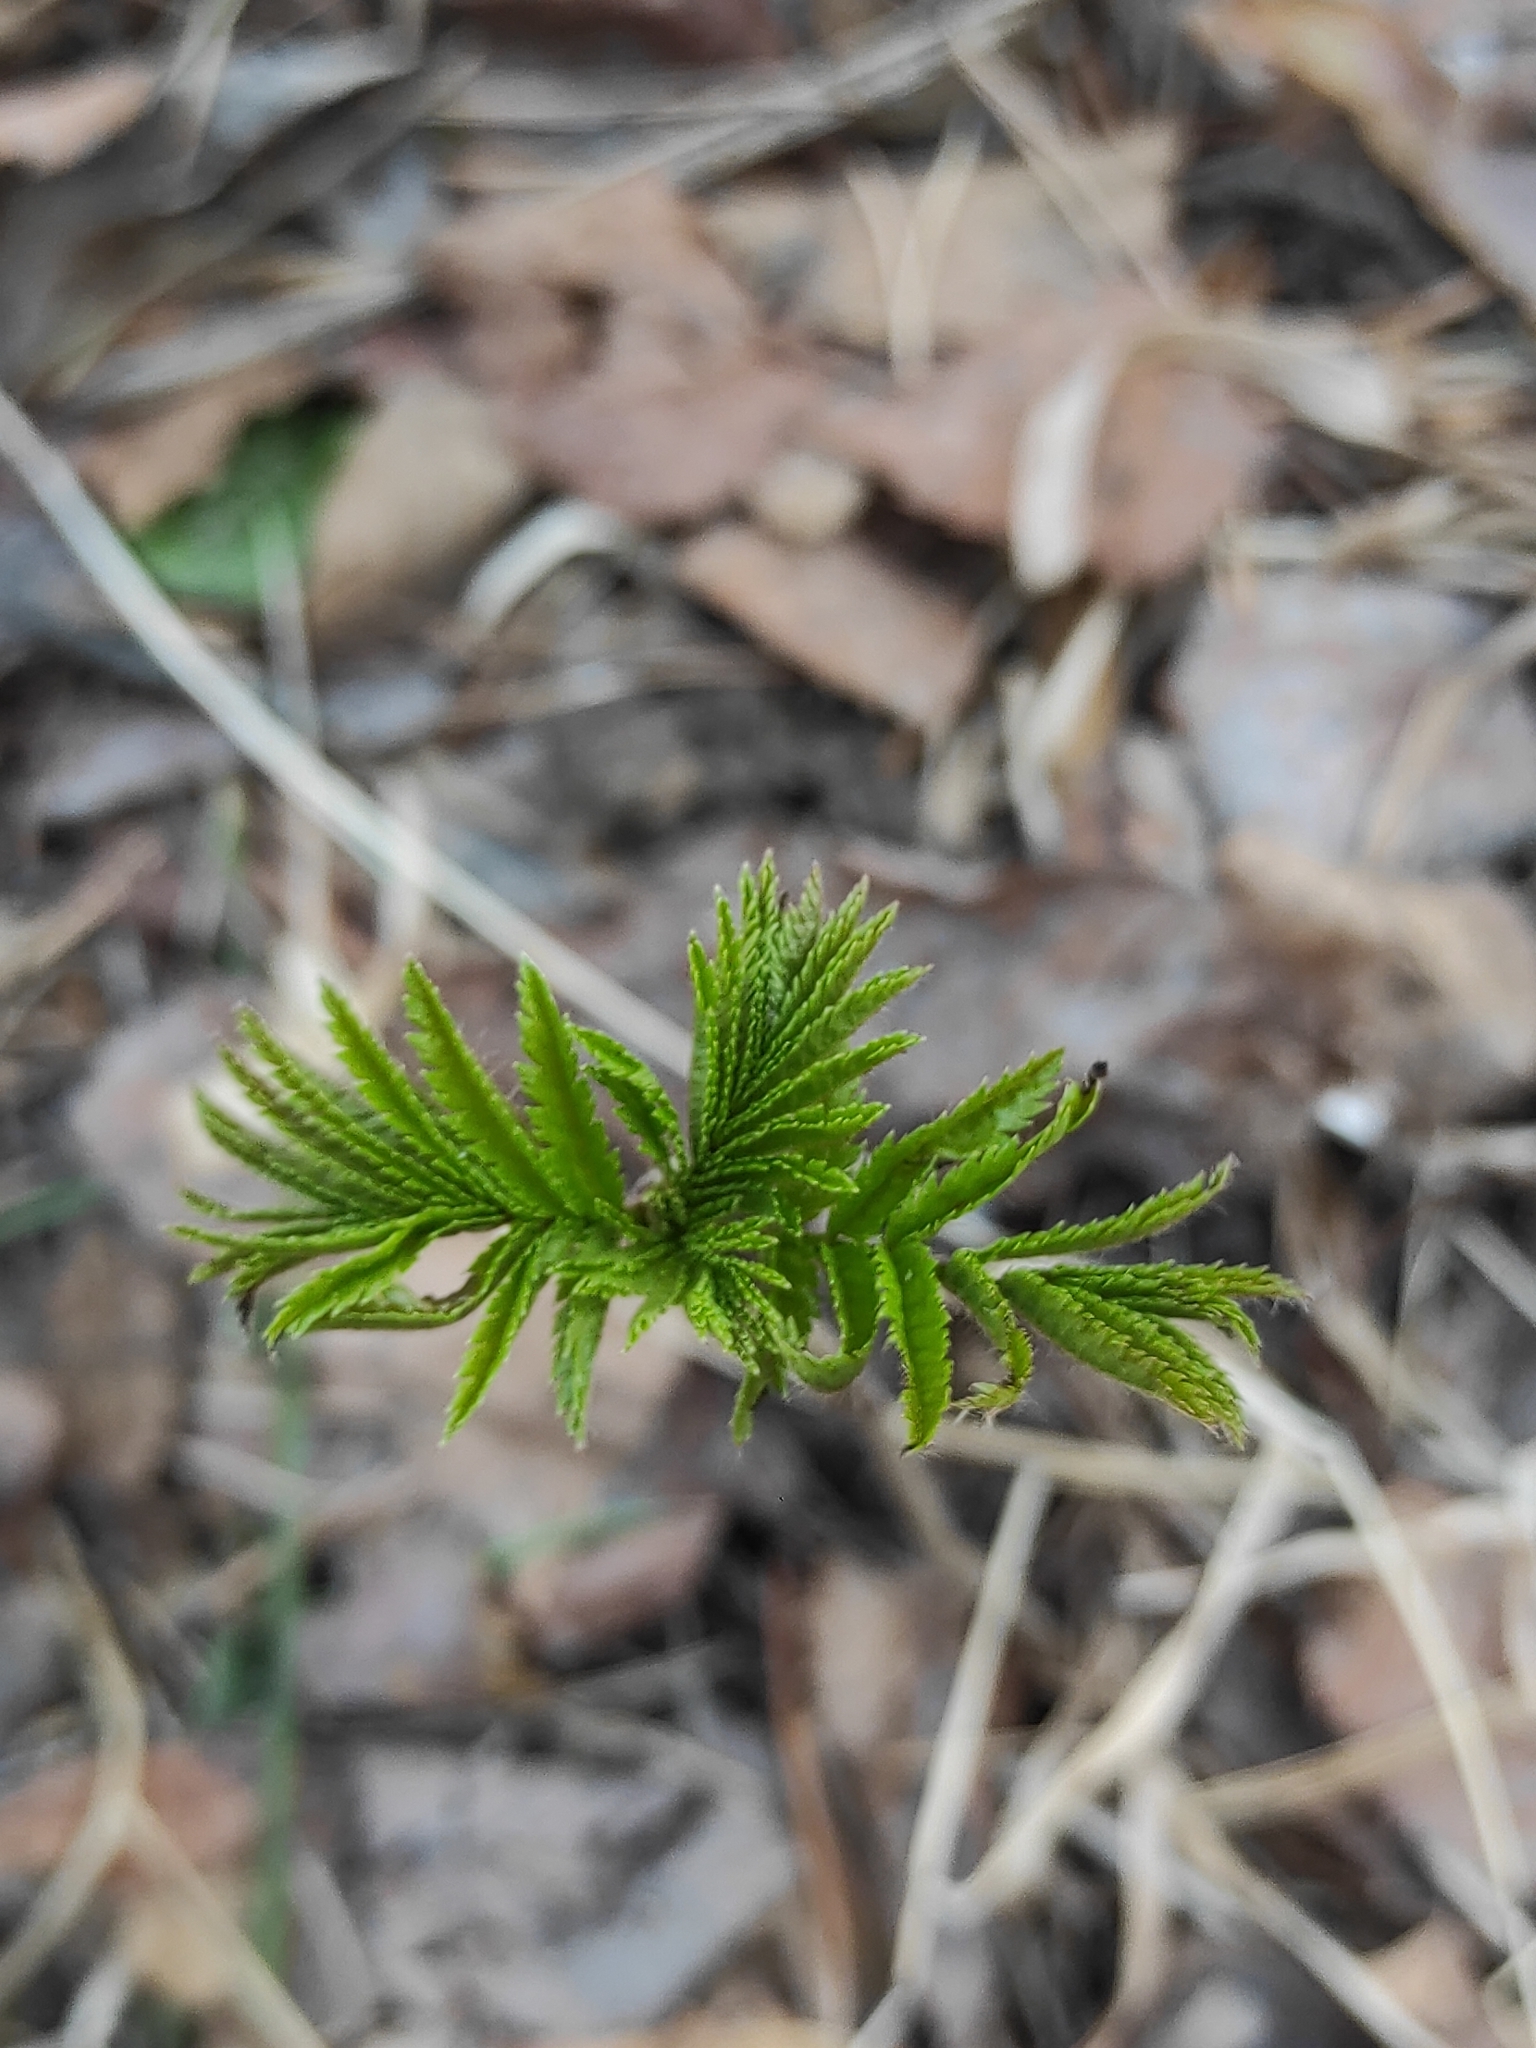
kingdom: Plantae
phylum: Tracheophyta
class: Magnoliopsida
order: Rosales
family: Rosaceae
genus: Sorbus
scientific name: Sorbus aucuparia
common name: Rowan
